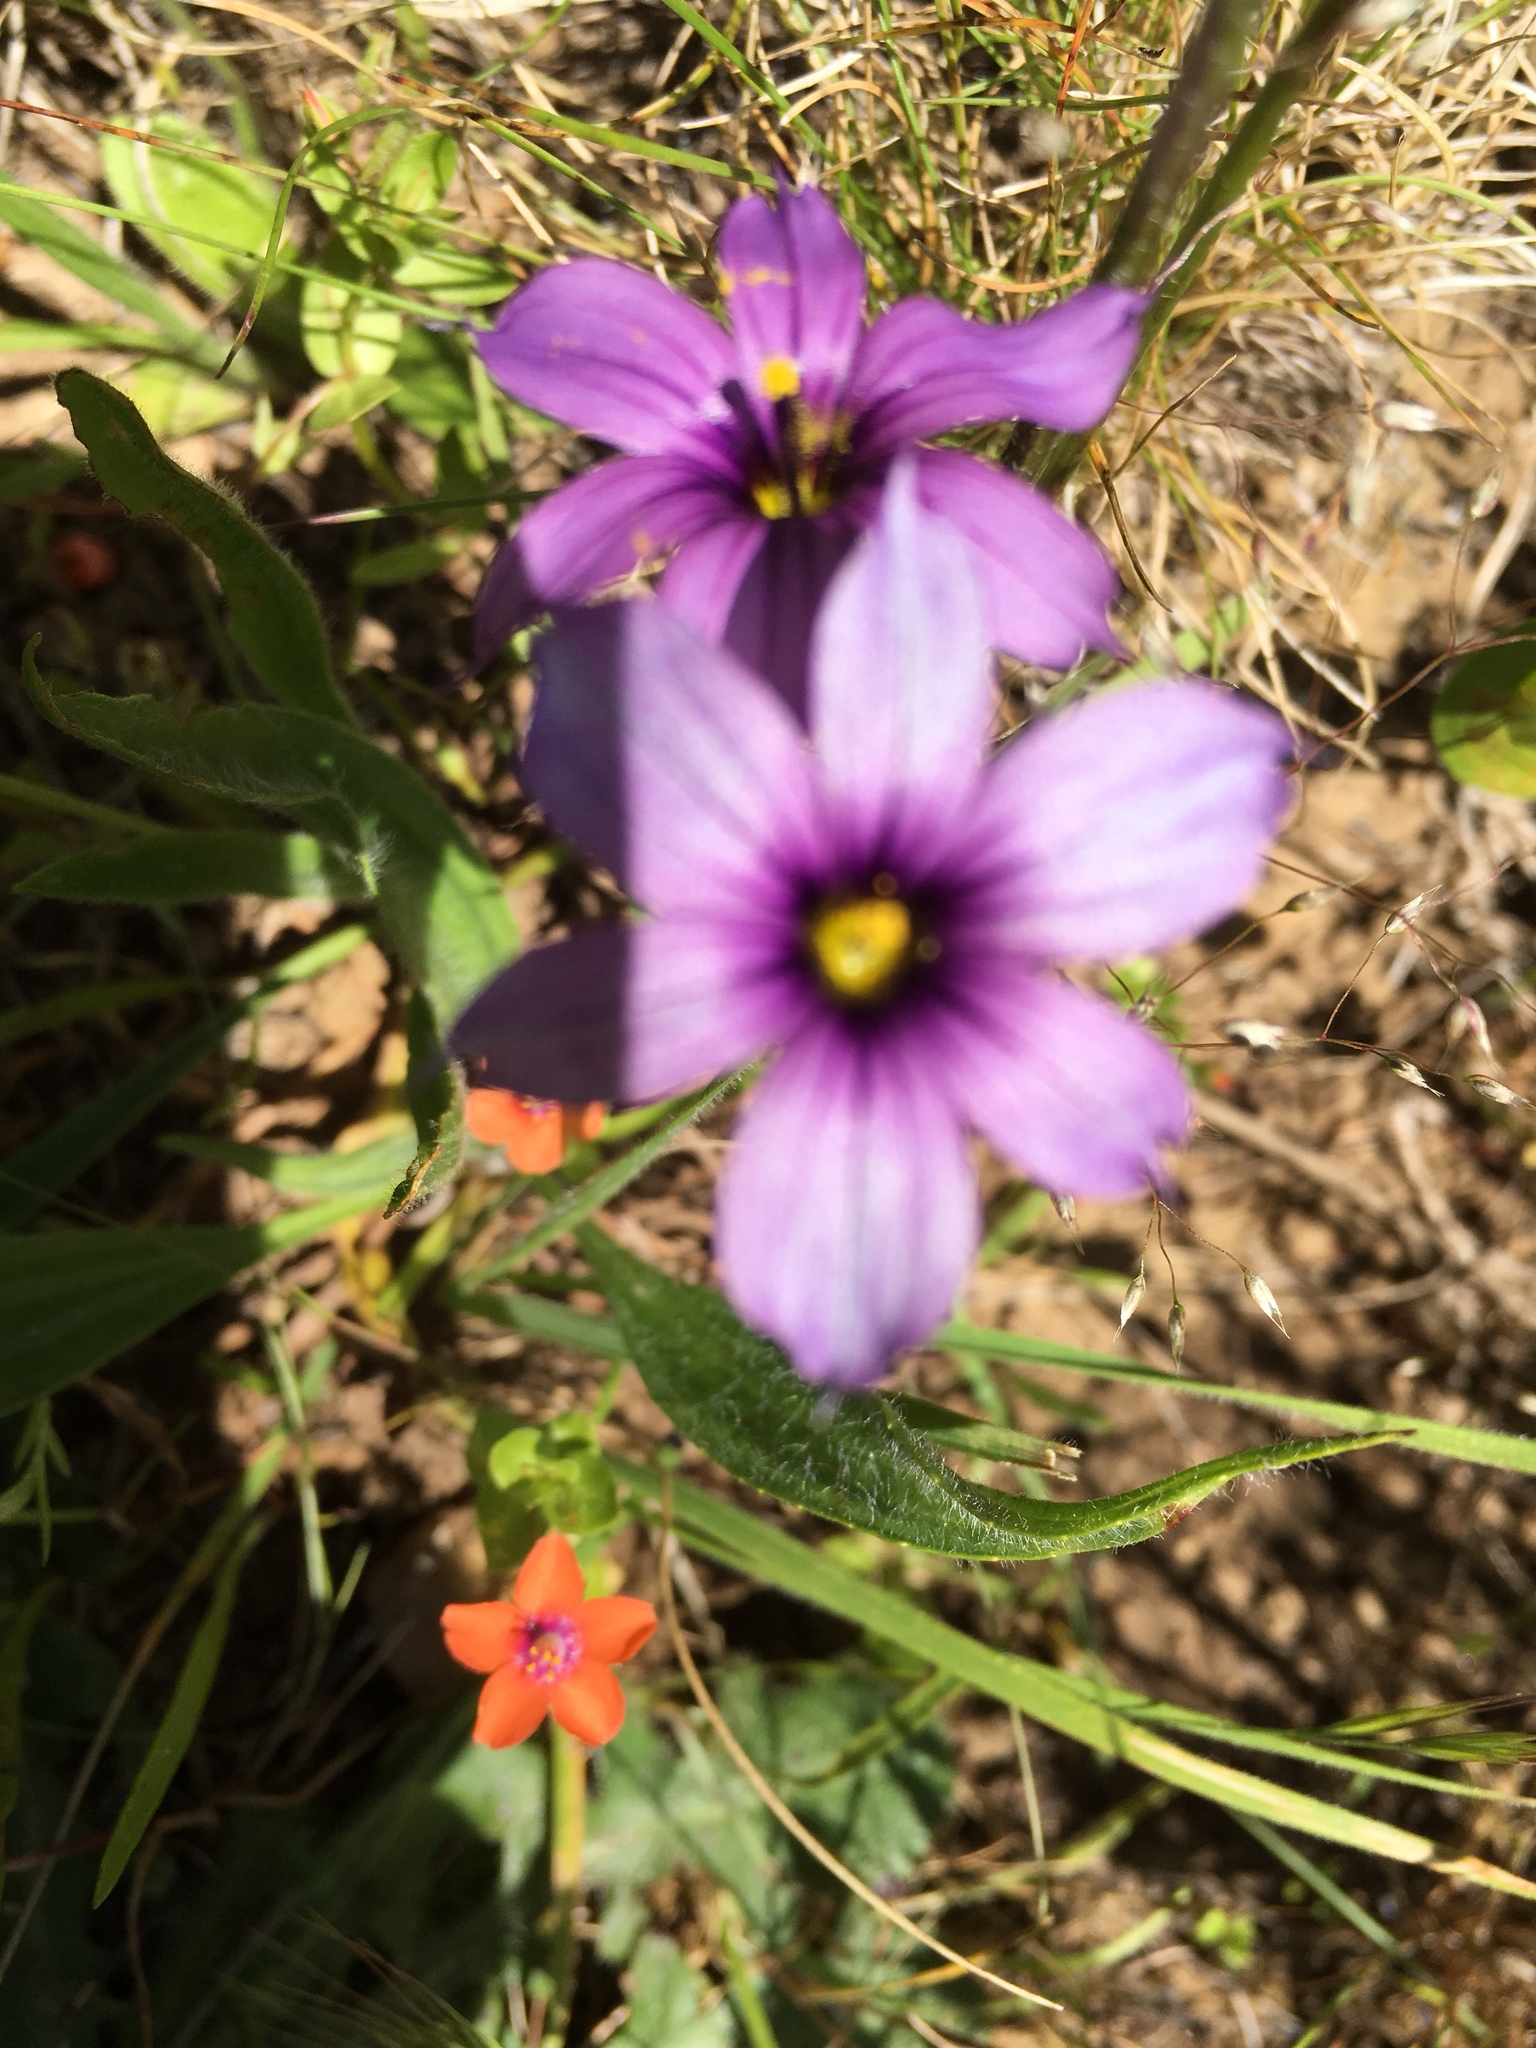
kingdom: Plantae
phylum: Tracheophyta
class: Liliopsida
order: Asparagales
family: Iridaceae
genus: Sisyrinchium
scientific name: Sisyrinchium bellum
